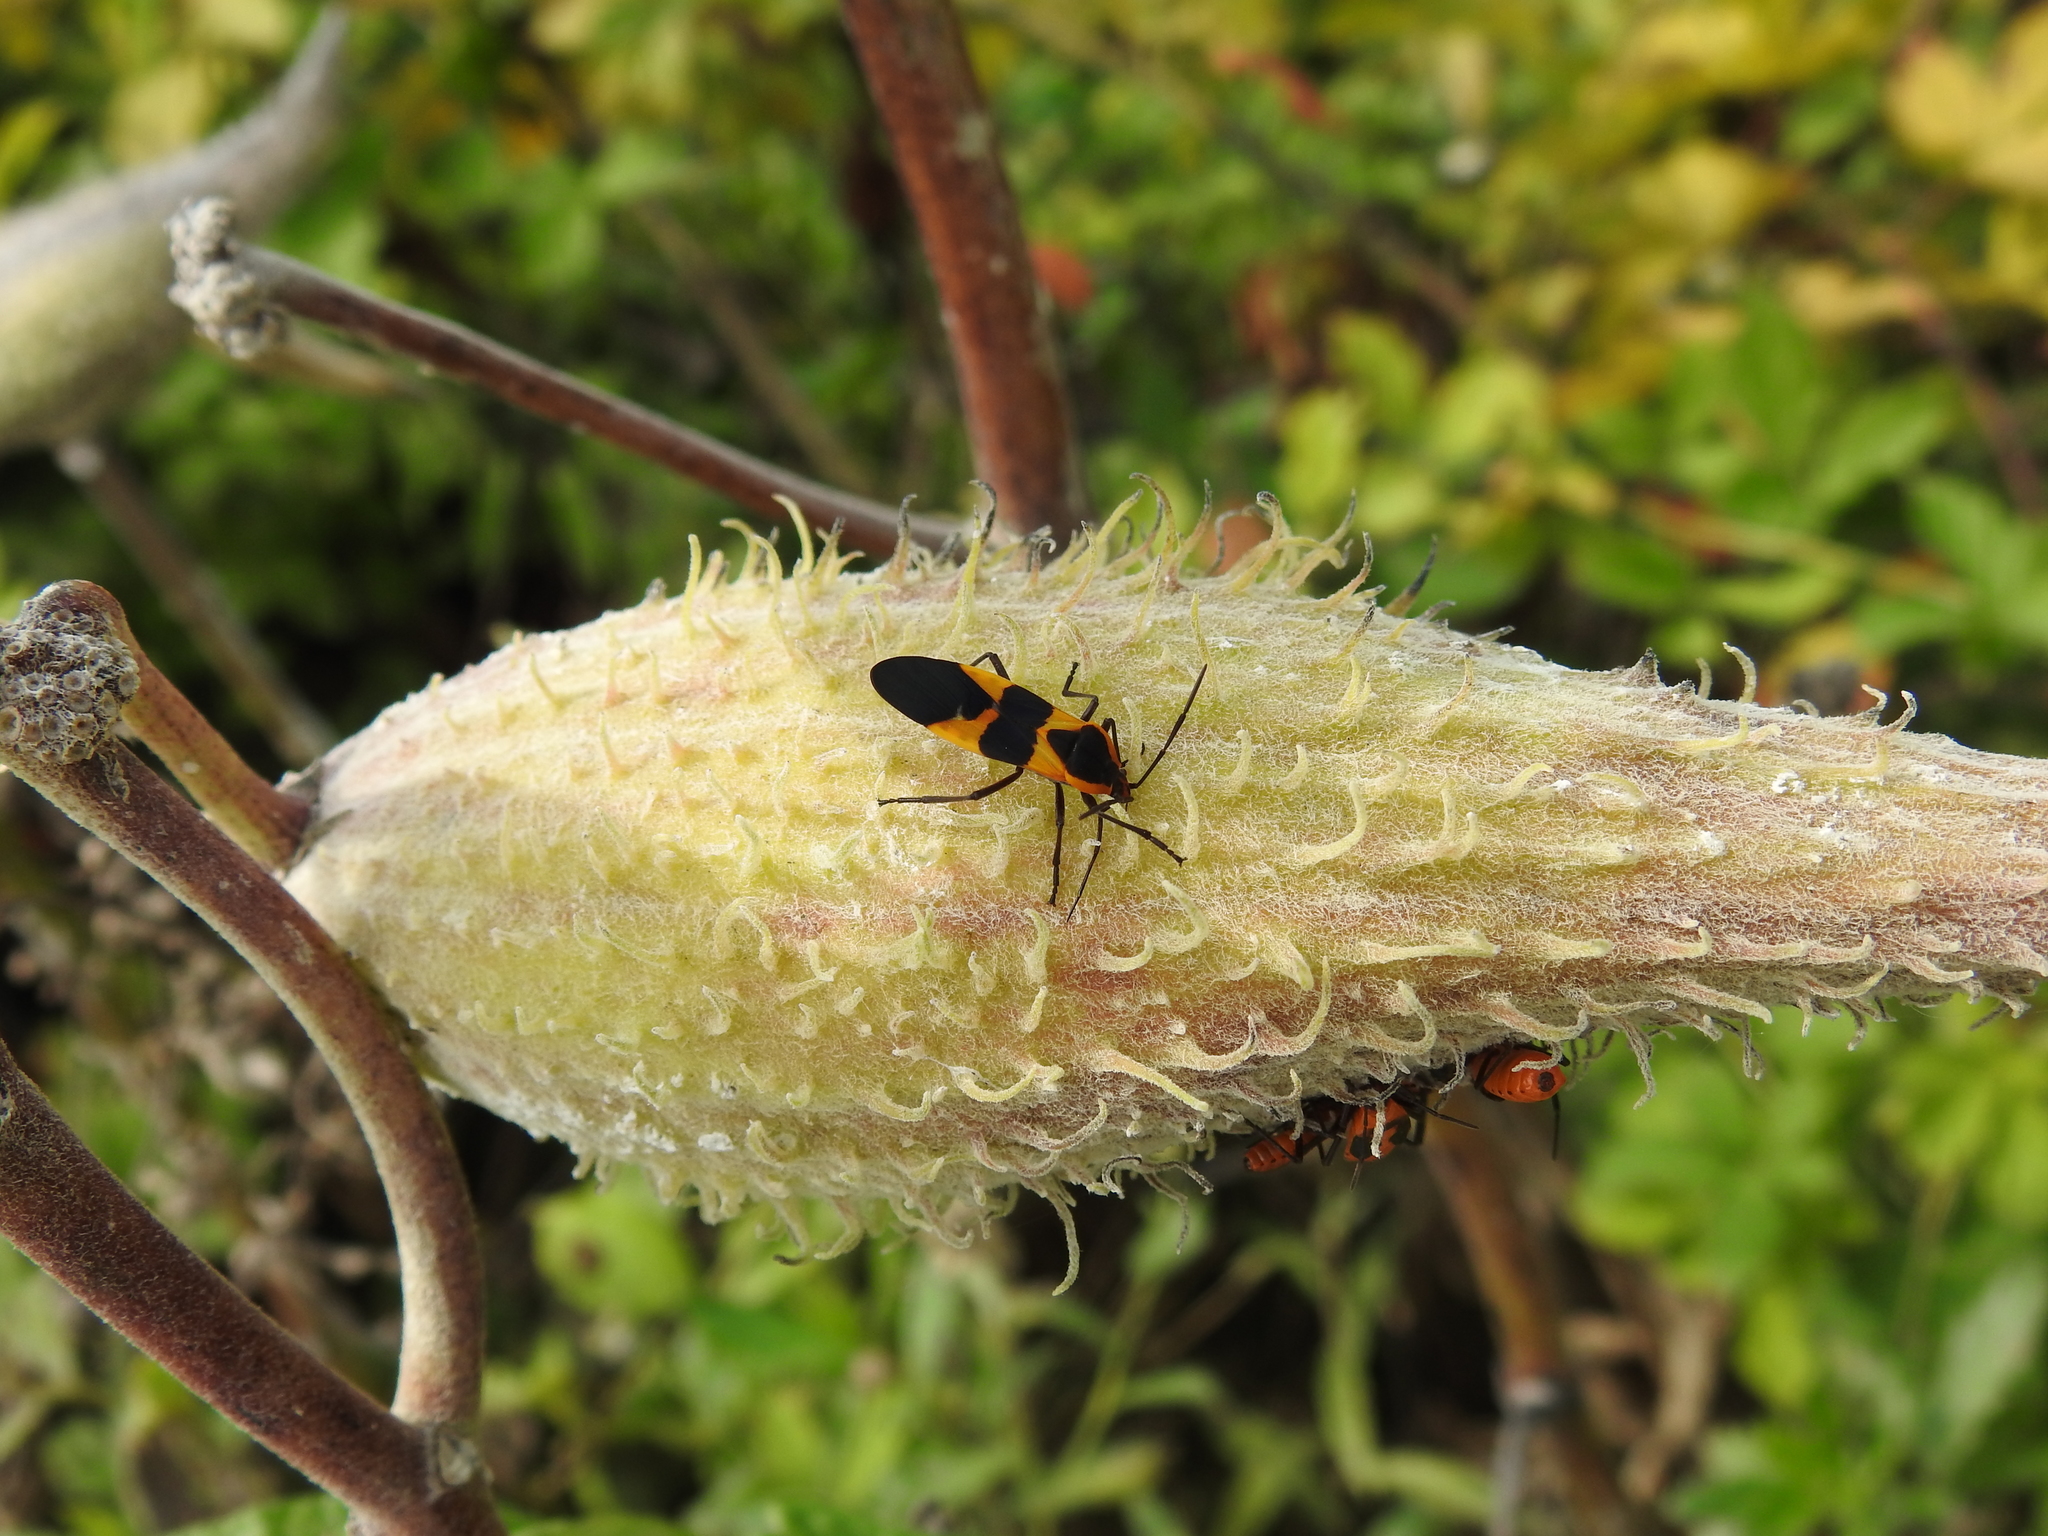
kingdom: Animalia
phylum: Arthropoda
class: Insecta
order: Hemiptera
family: Lygaeidae
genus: Oncopeltus
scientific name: Oncopeltus fasciatus
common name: Large milkweed bug
